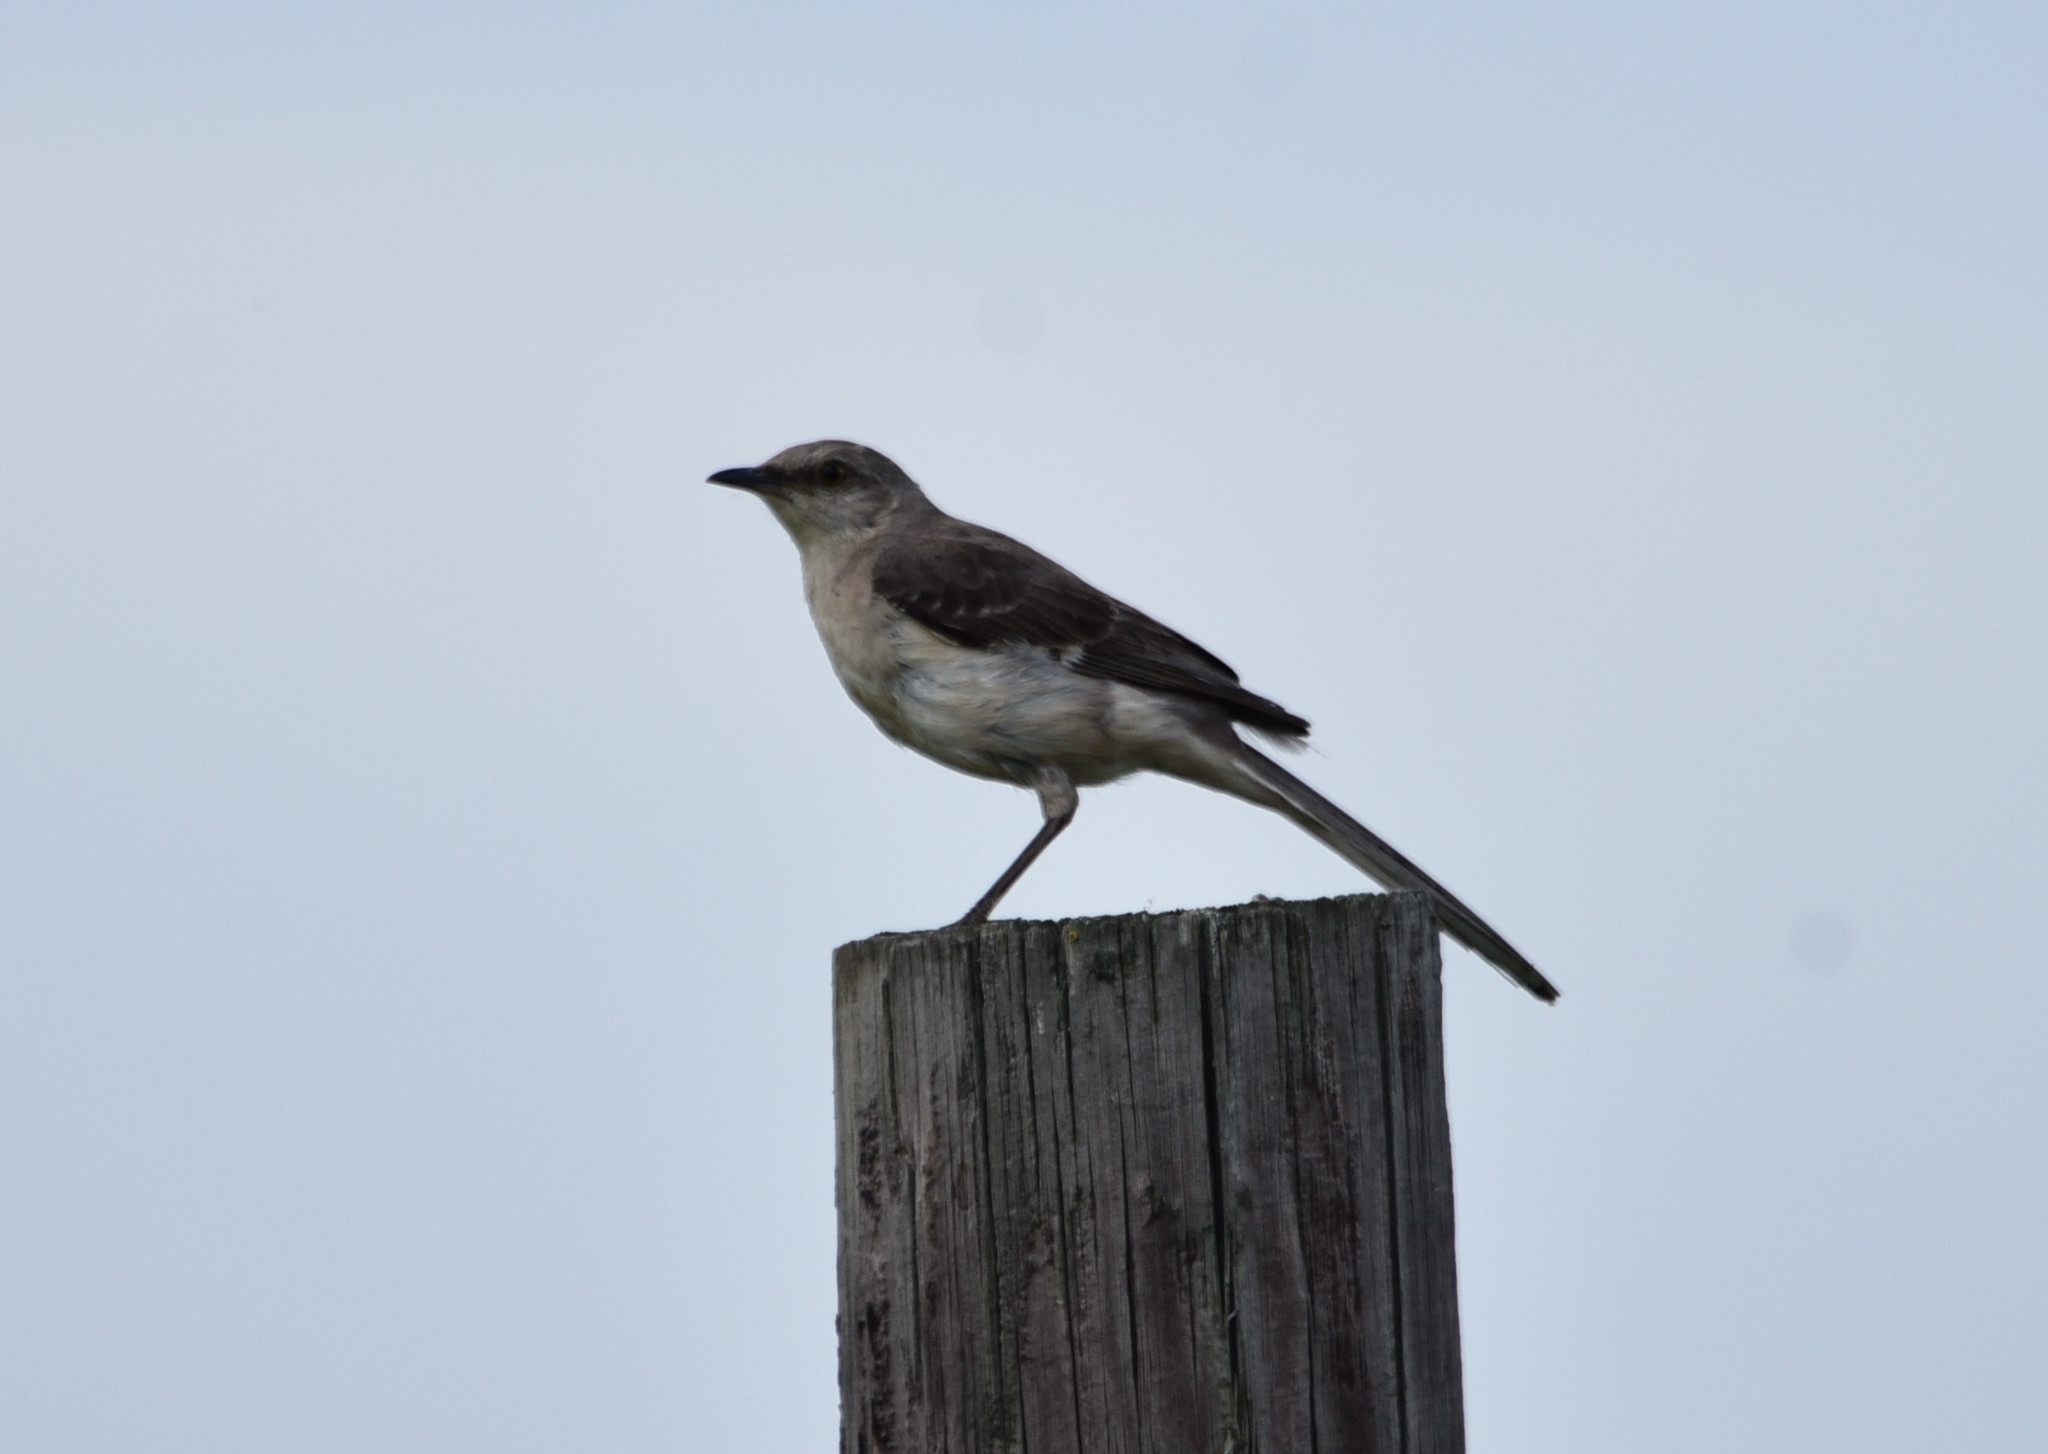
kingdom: Animalia
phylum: Chordata
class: Aves
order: Passeriformes
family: Mimidae
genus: Mimus
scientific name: Mimus polyglottos
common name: Northern mockingbird
